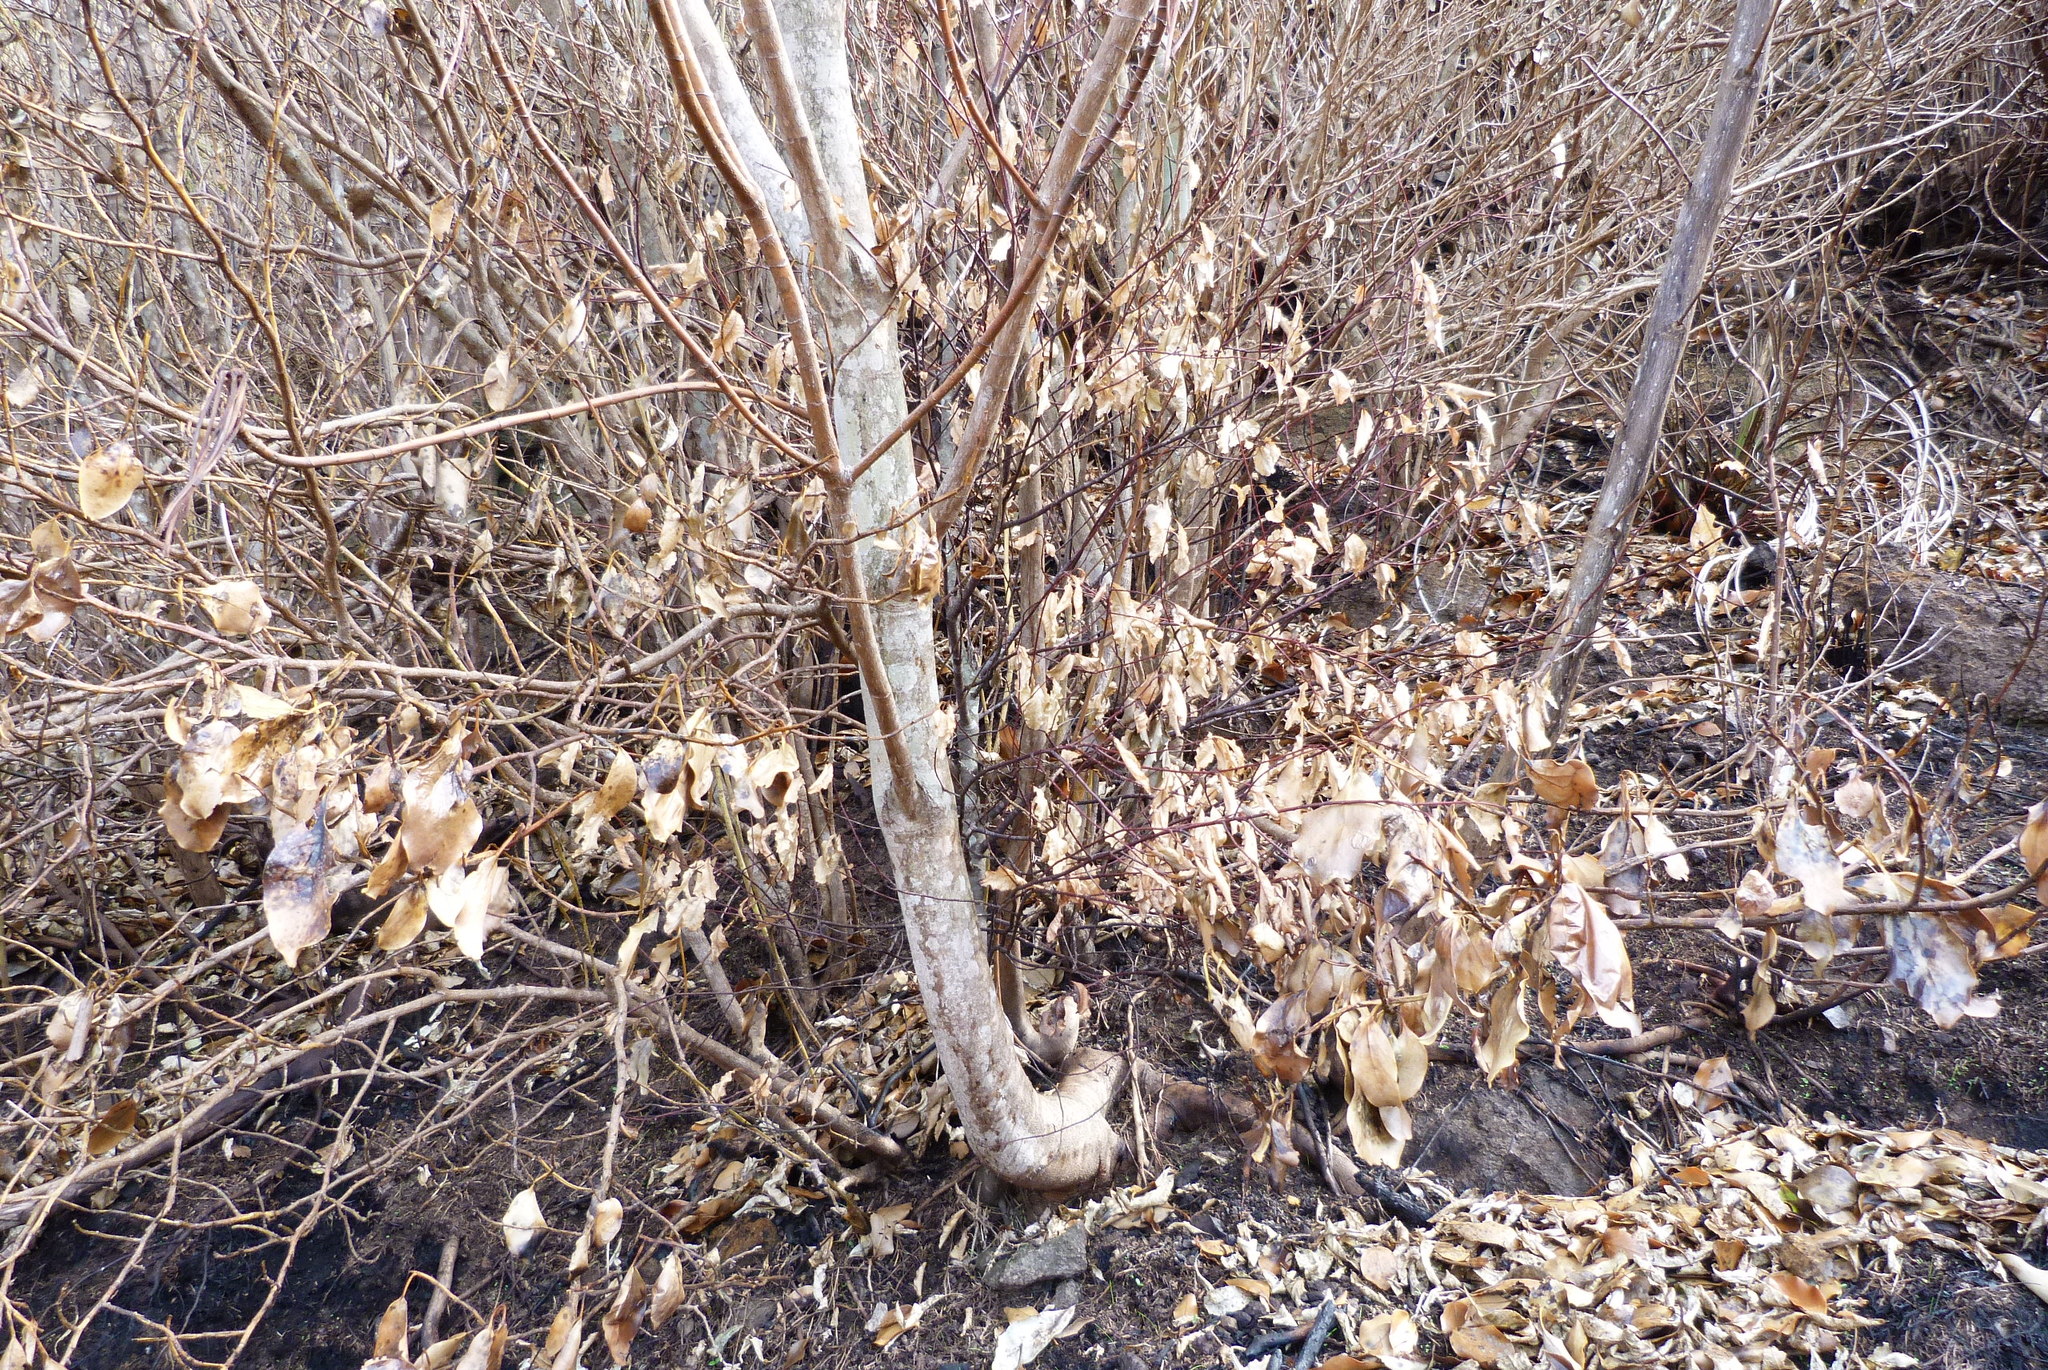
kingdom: Plantae
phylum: Tracheophyta
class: Magnoliopsida
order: Ericales
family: Primulaceae
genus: Myrsine
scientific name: Myrsine australis
